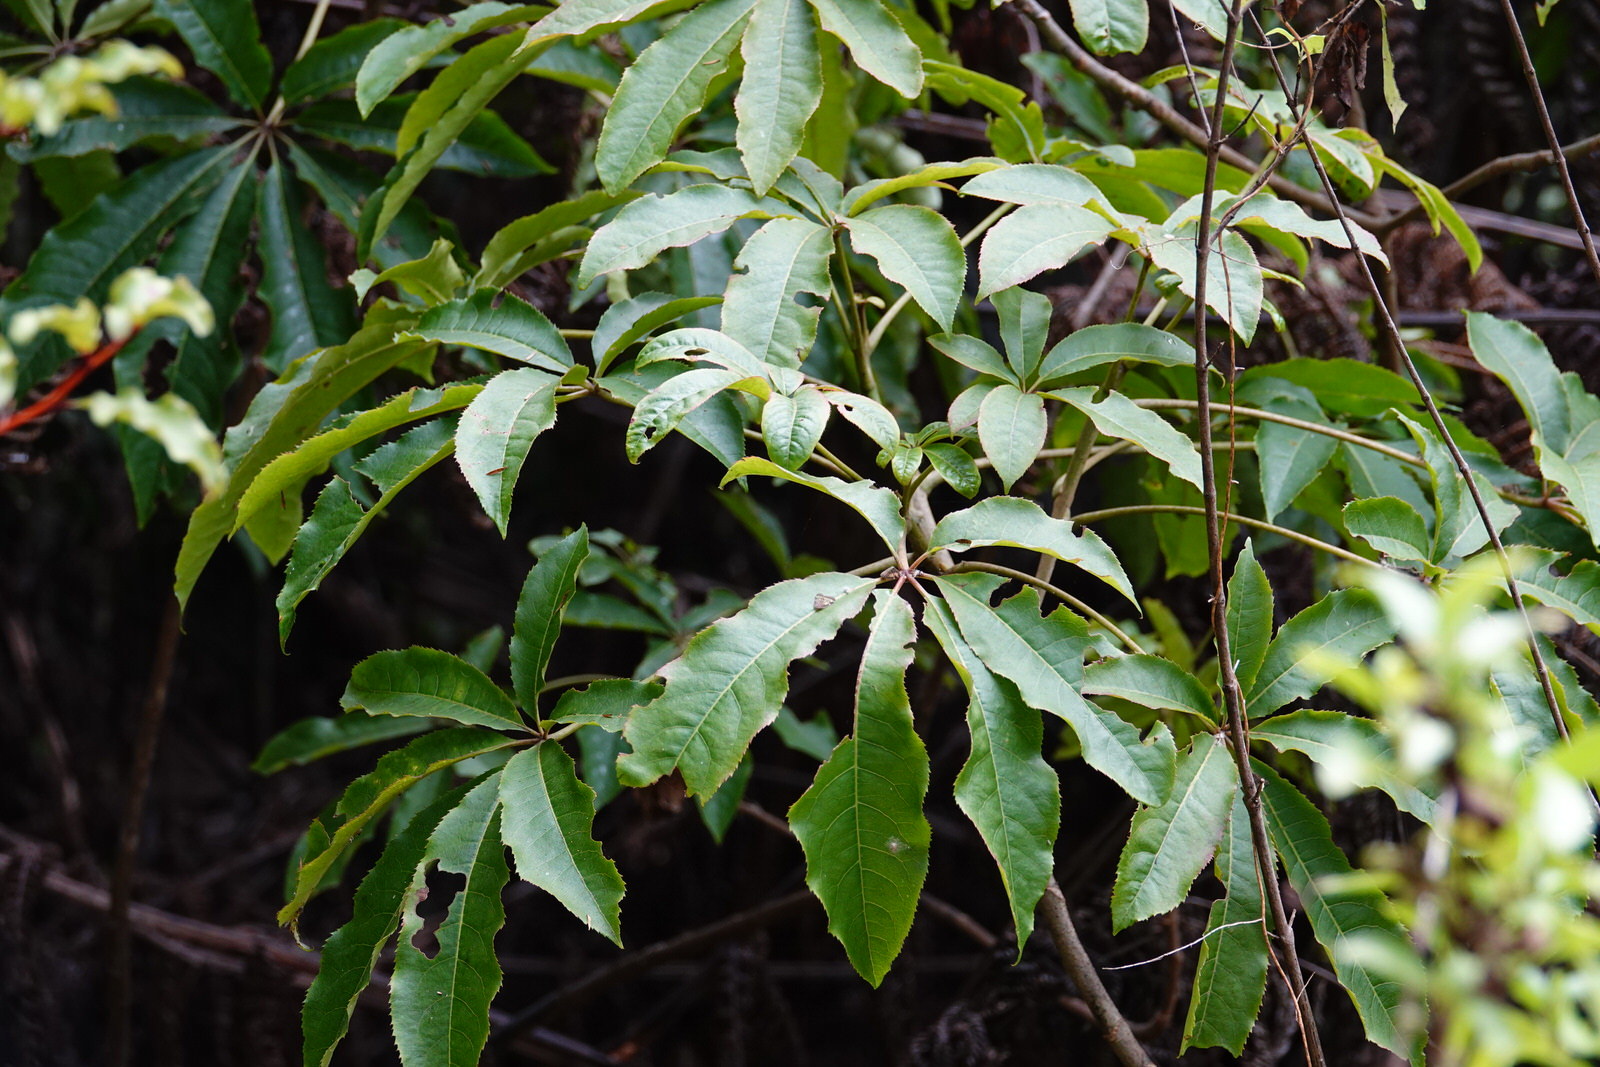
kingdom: Plantae
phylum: Tracheophyta
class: Magnoliopsida
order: Apiales
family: Araliaceae
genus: Schefflera
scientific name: Schefflera digitata
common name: Pate
